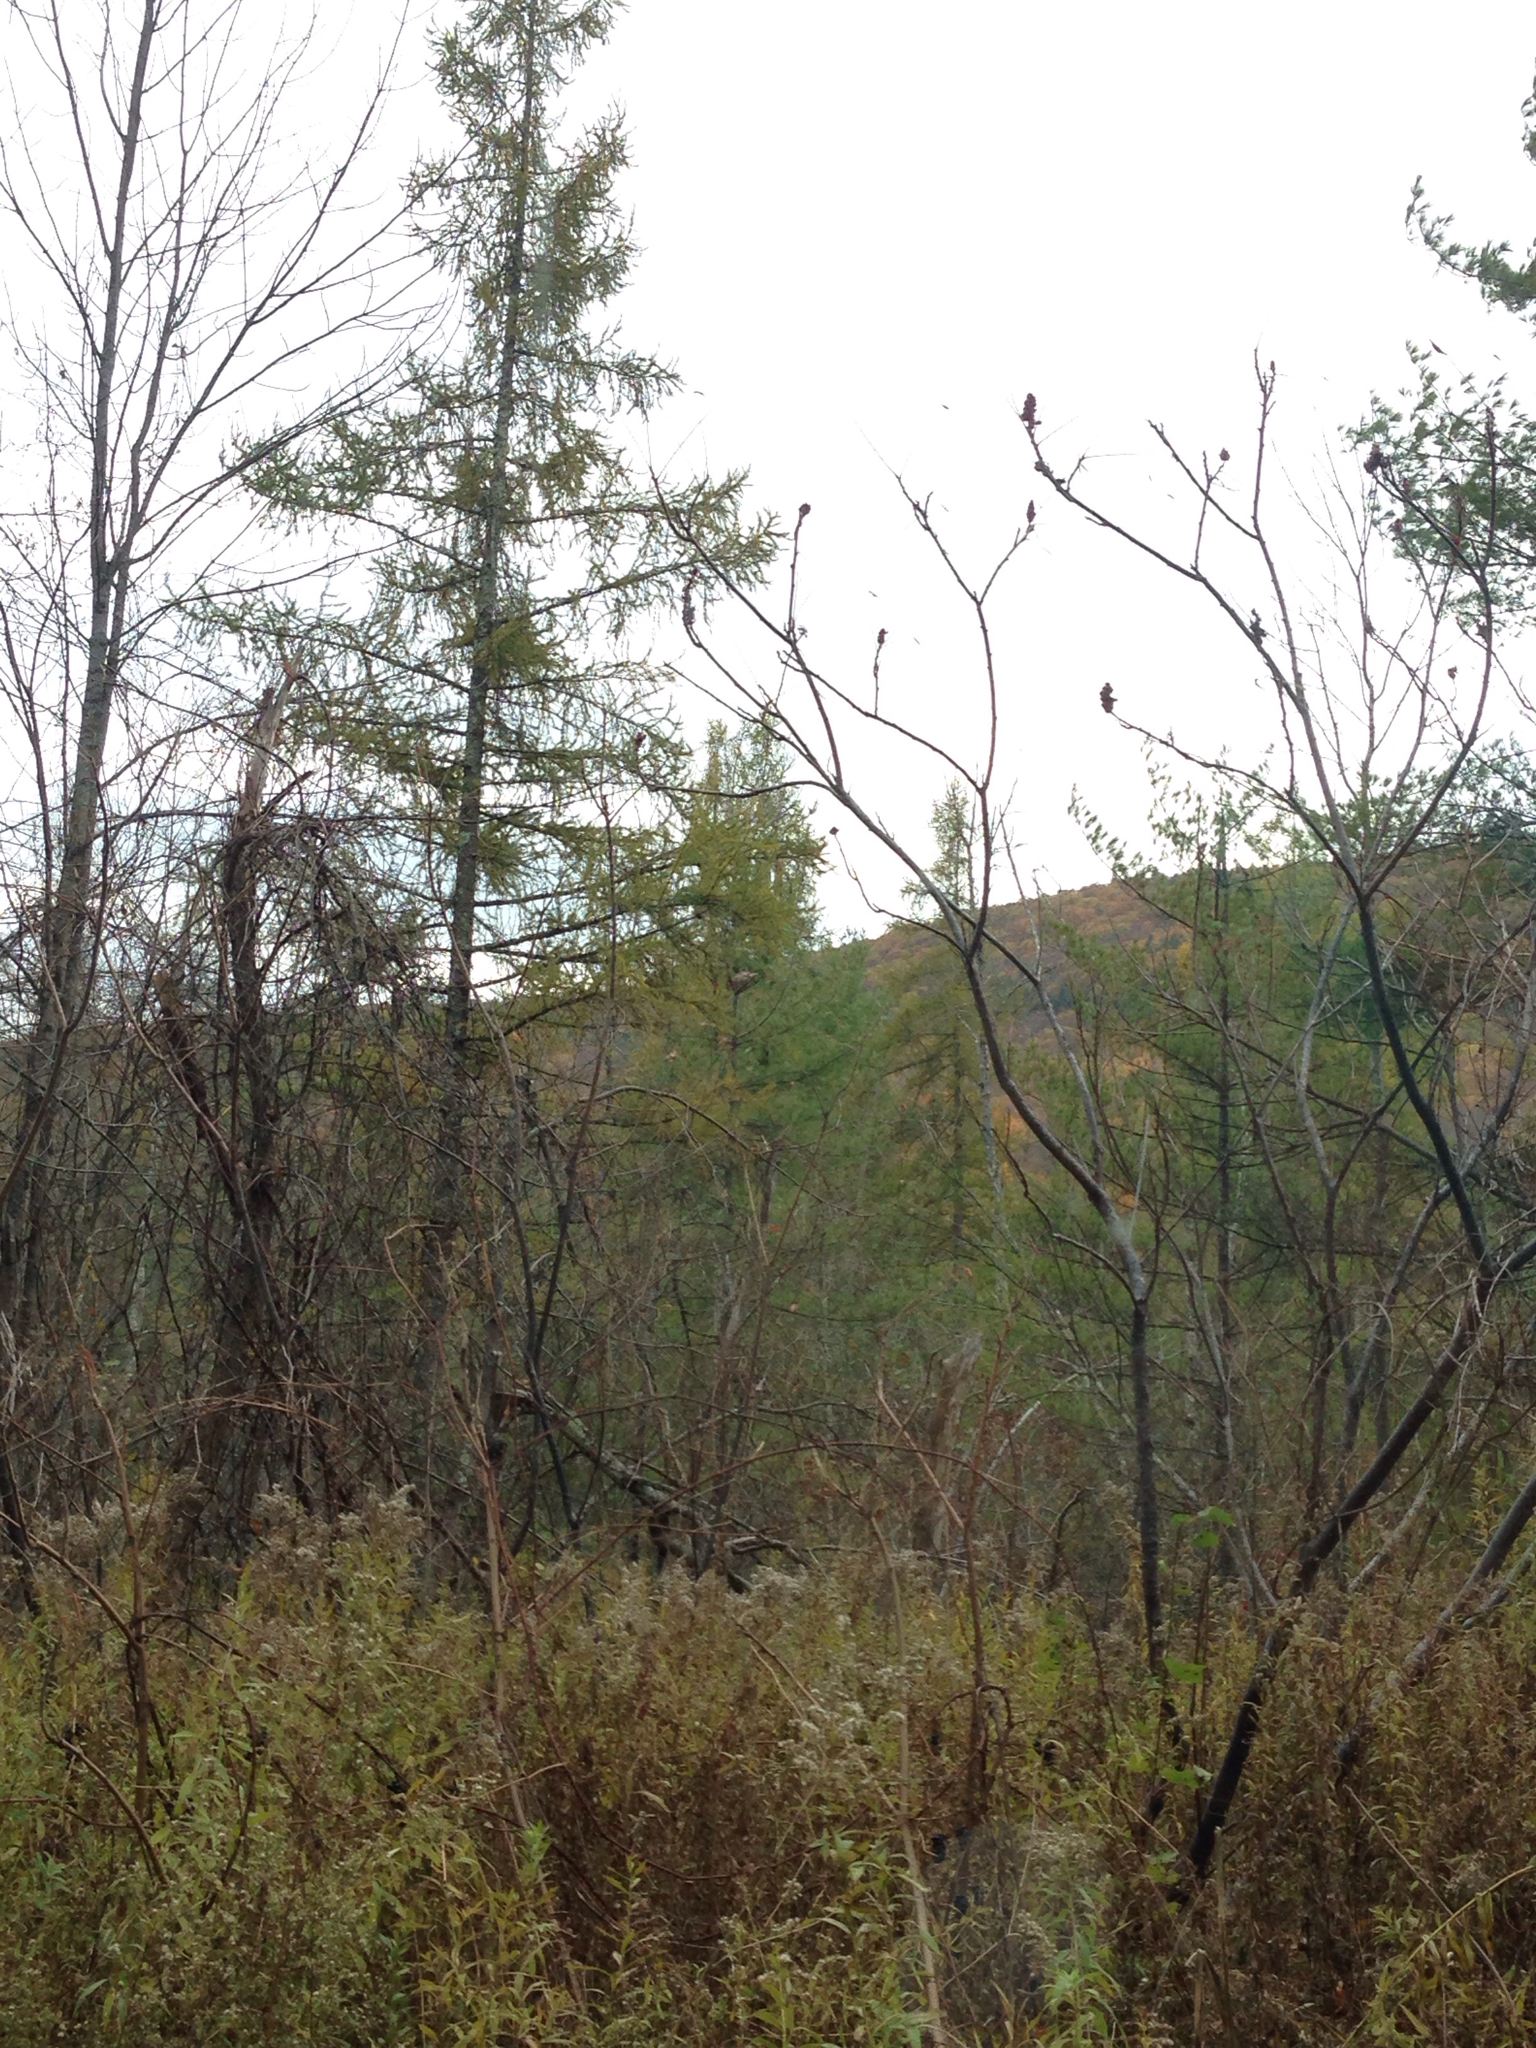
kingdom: Plantae
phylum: Tracheophyta
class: Magnoliopsida
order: Sapindales
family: Anacardiaceae
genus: Rhus
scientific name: Rhus typhina
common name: Staghorn sumac
